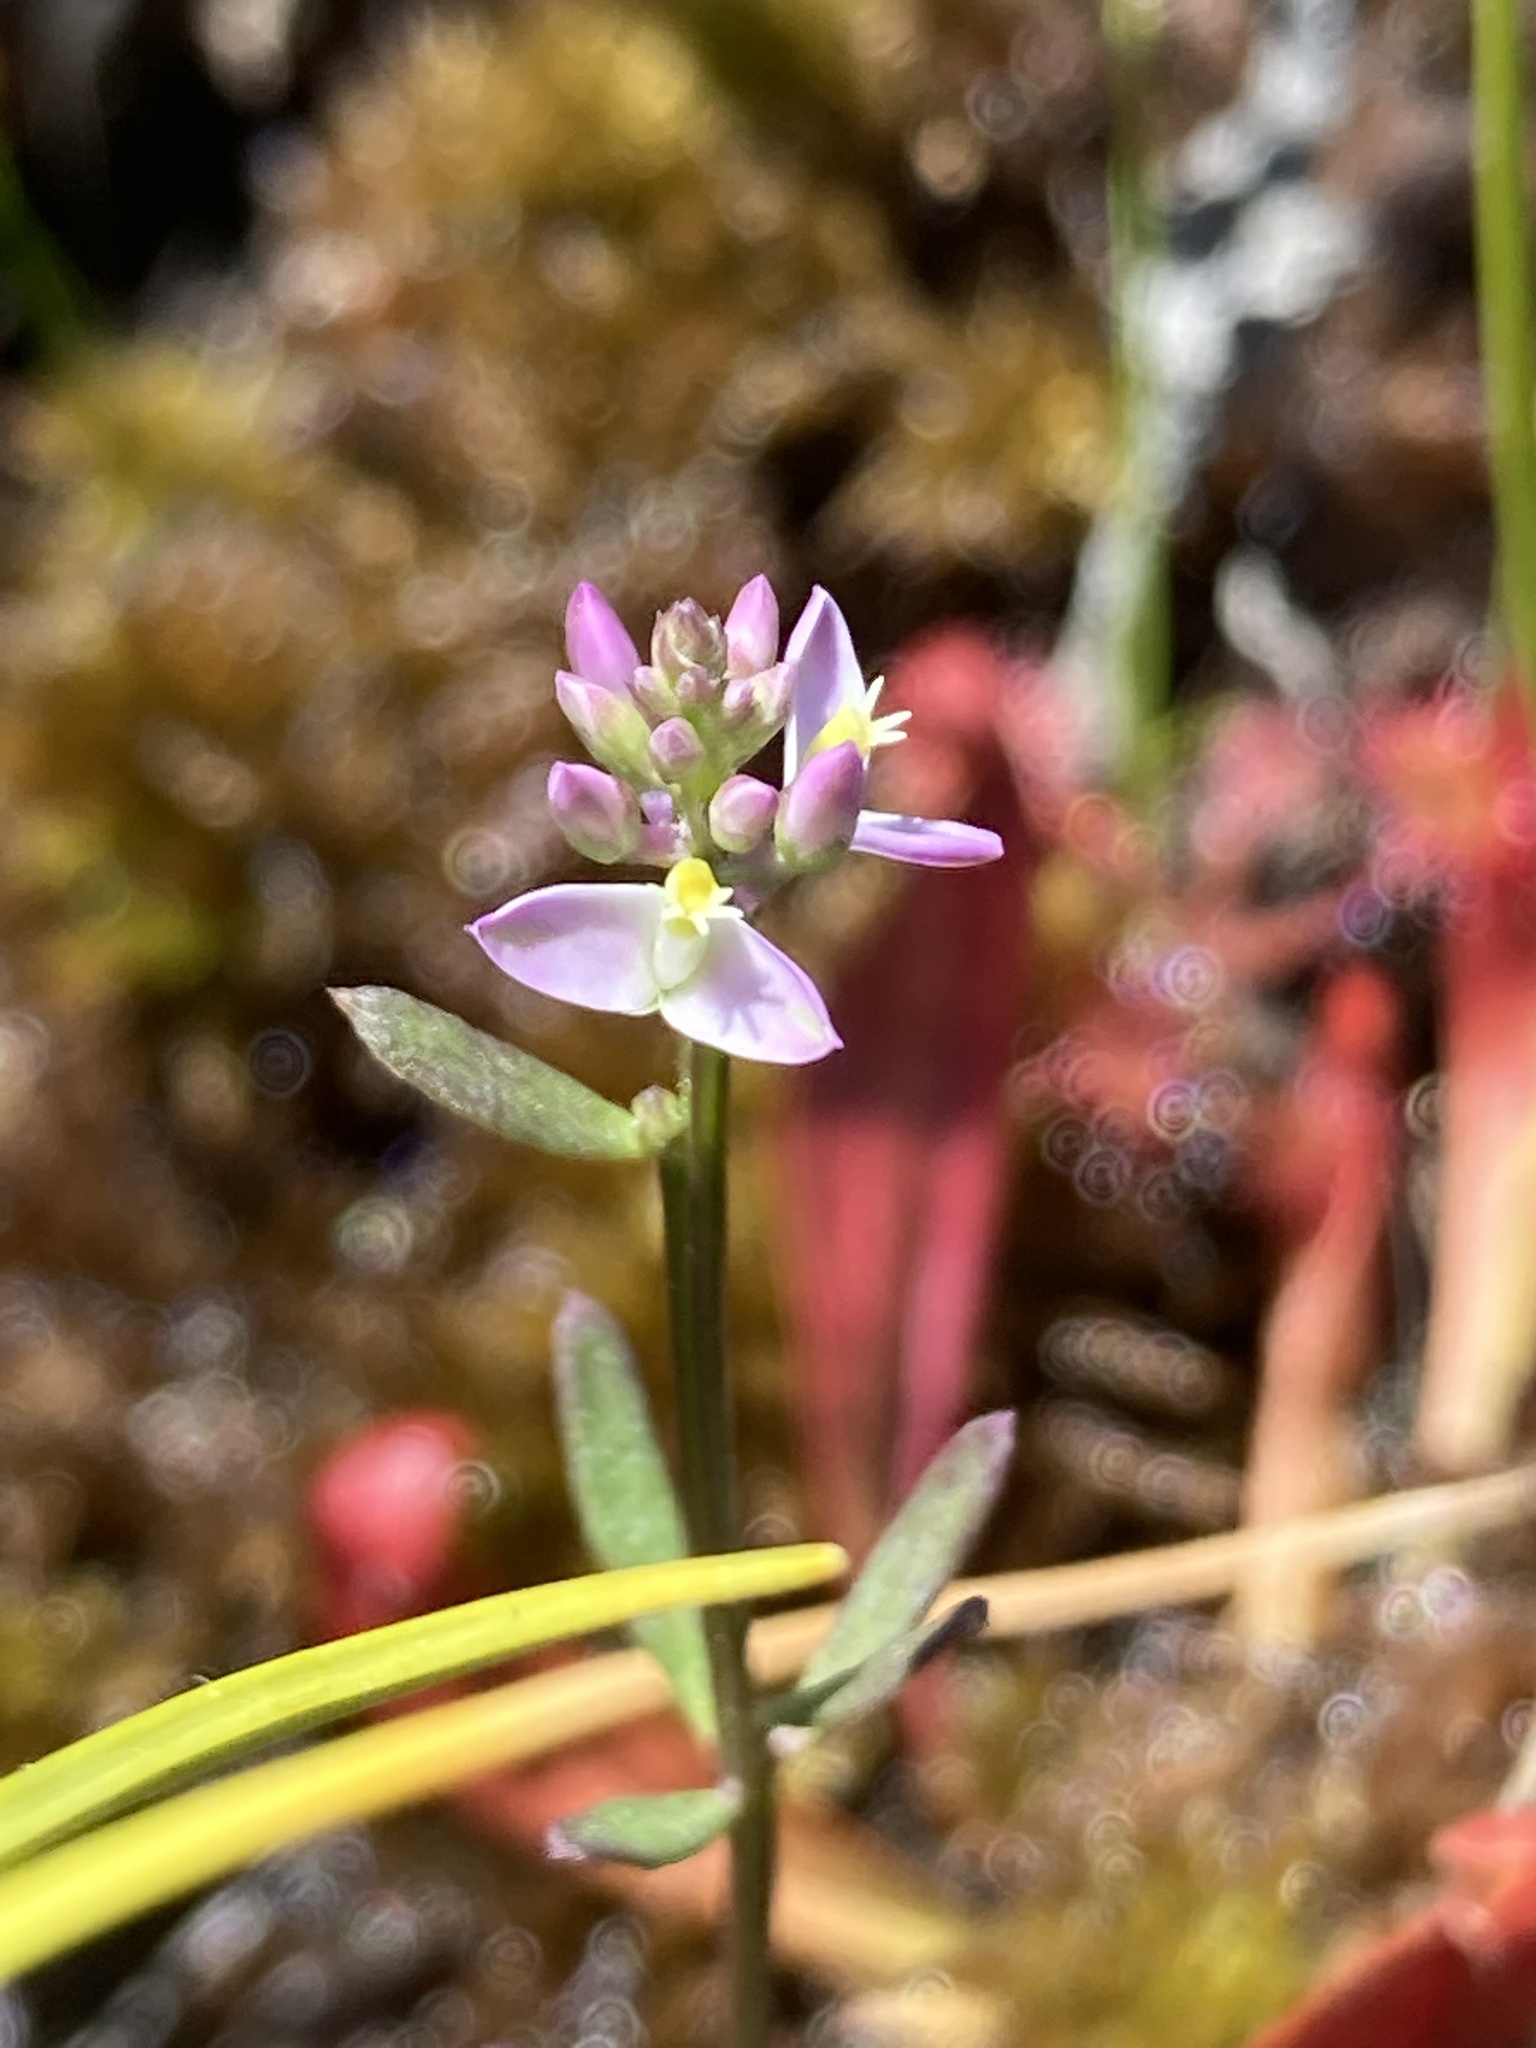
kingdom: Plantae
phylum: Tracheophyta
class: Magnoliopsida
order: Fabales
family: Polygalaceae
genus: Polygala
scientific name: Polygala brevifolia
